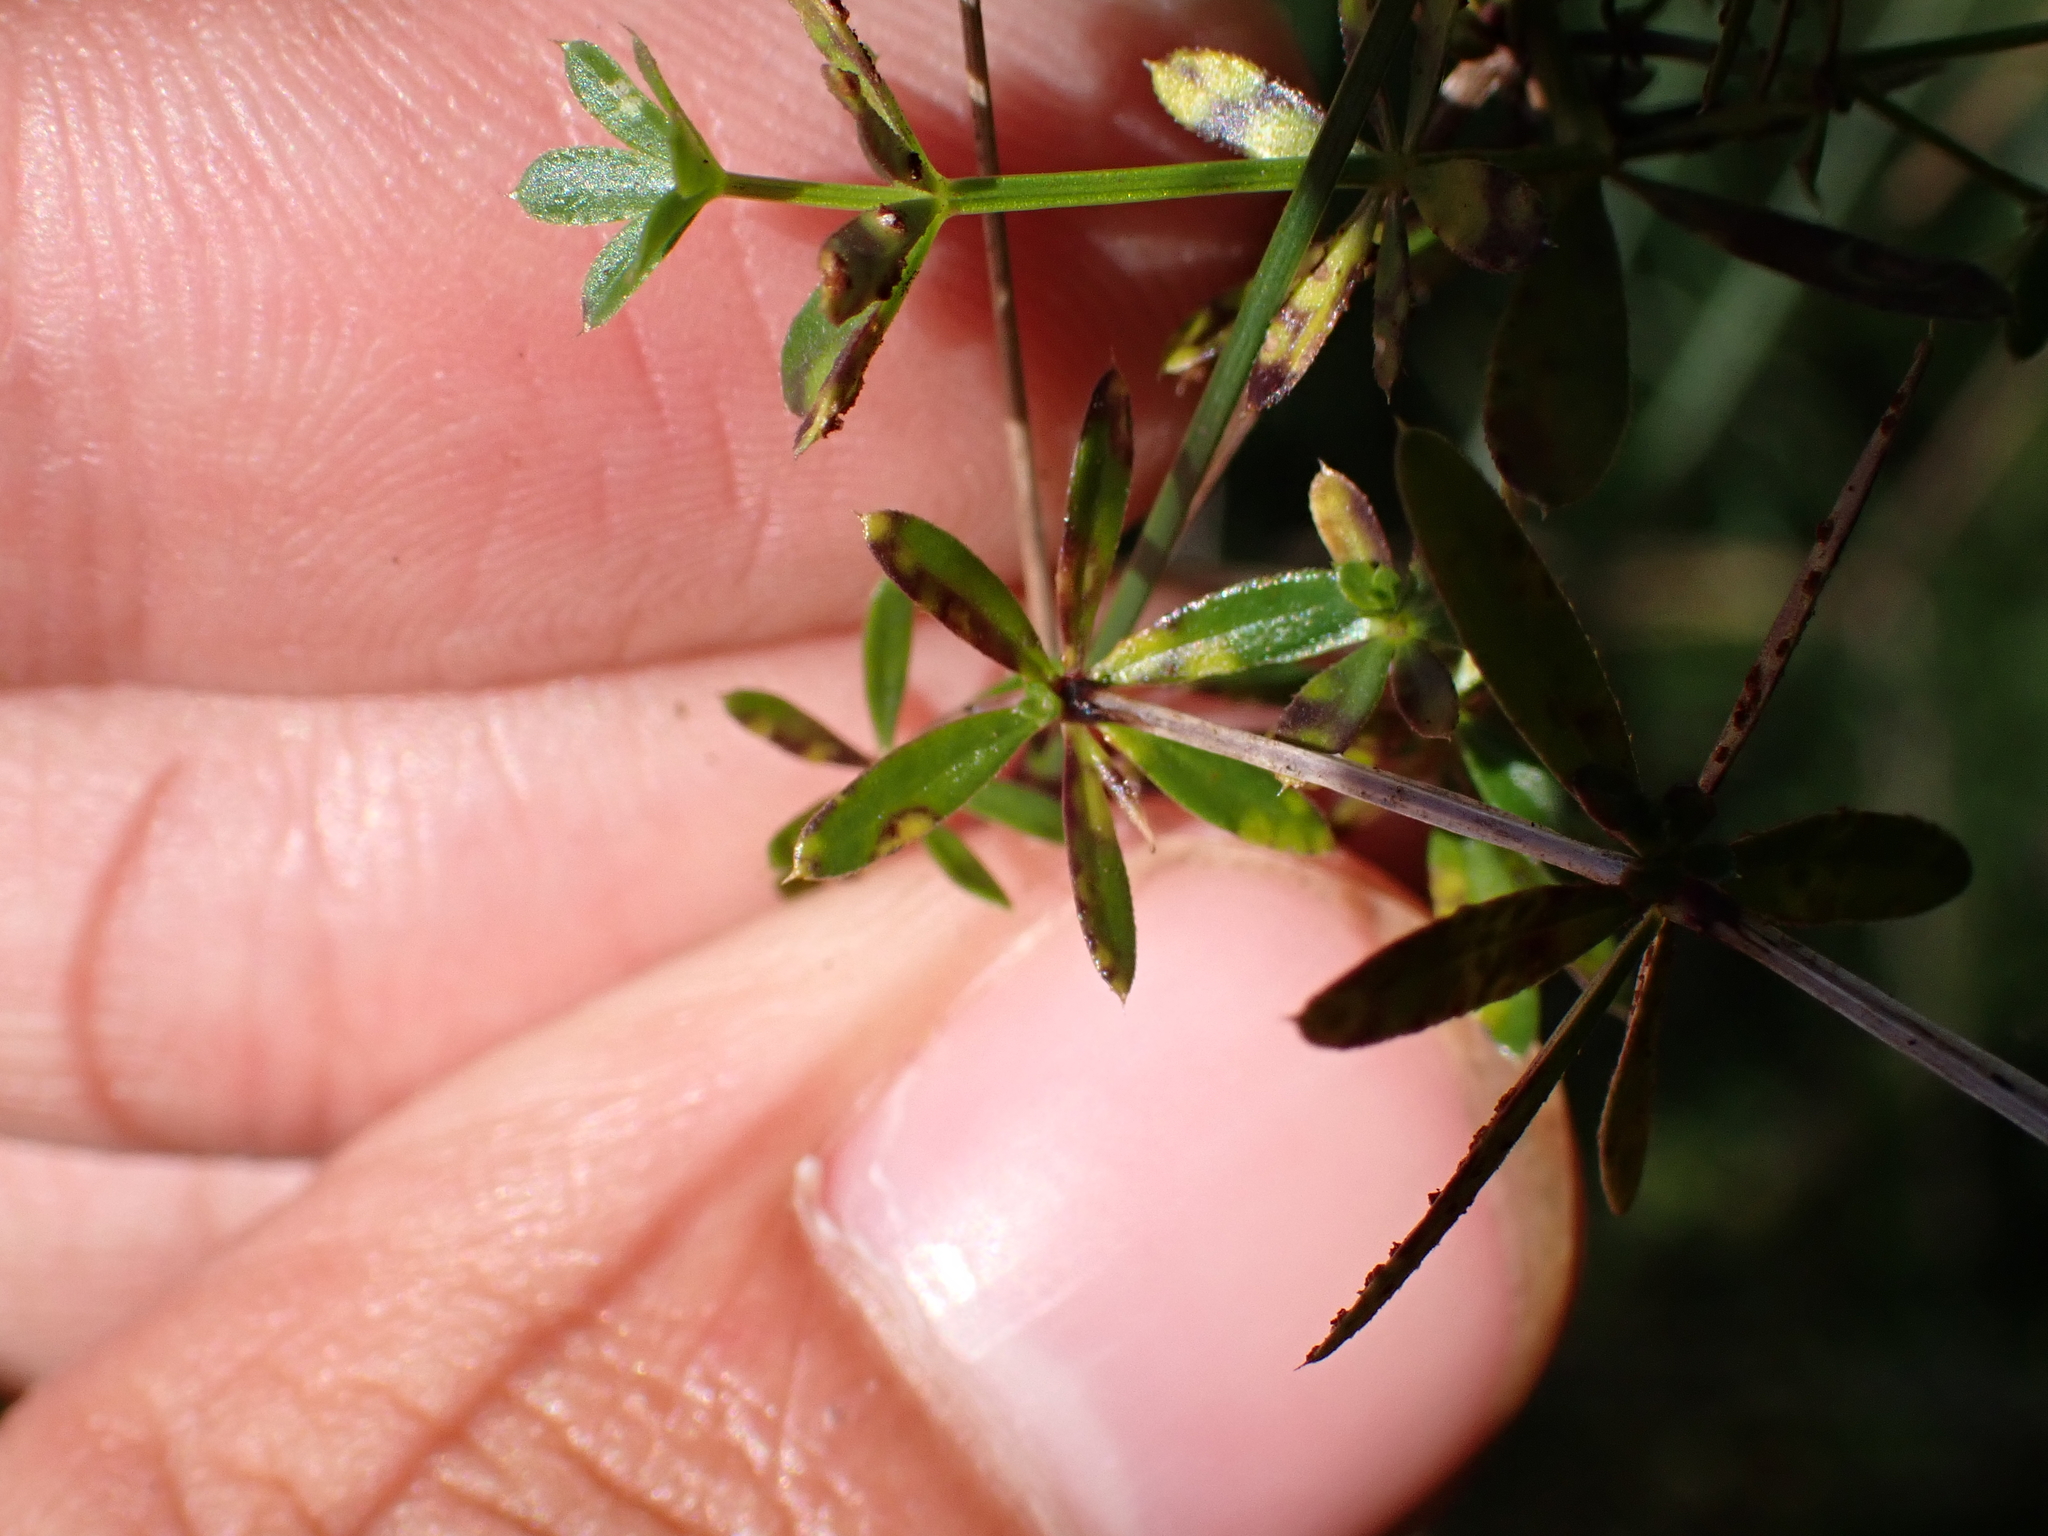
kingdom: Fungi
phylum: Basidiomycota
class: Pucciniomycetes
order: Pucciniales
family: Pucciniaceae
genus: Puccinia
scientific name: Puccinia punctata
